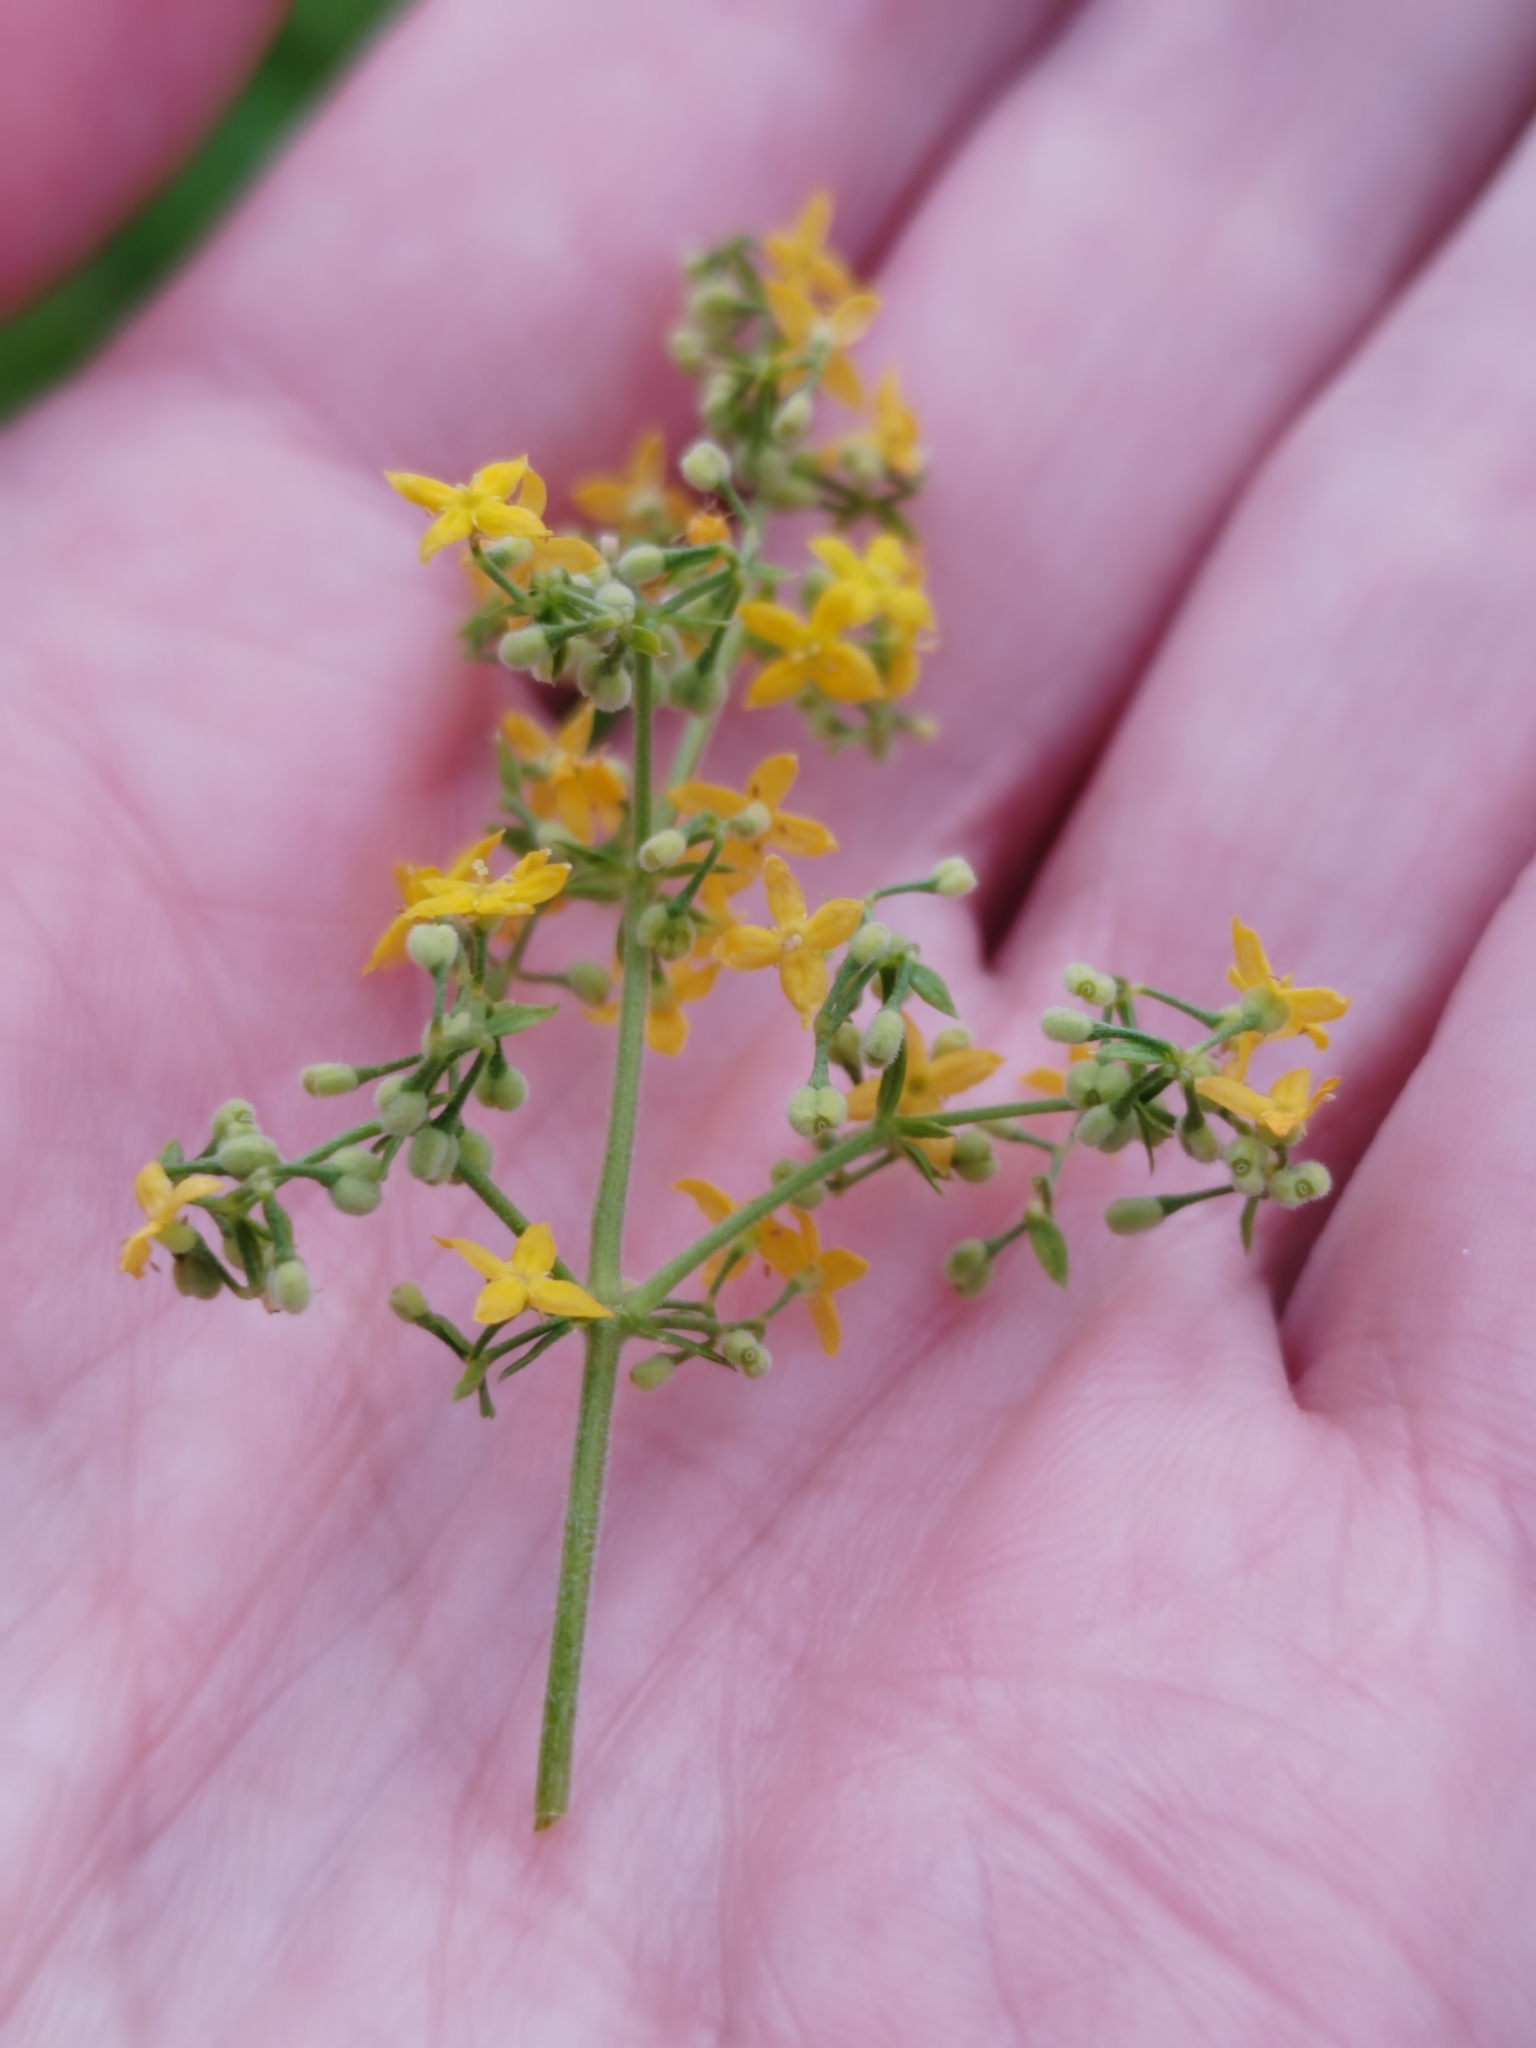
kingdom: Plantae
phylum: Tracheophyta
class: Magnoliopsida
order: Gentianales
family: Rubiaceae
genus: Galium
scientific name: Galium verum
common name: Lady's bedstraw
